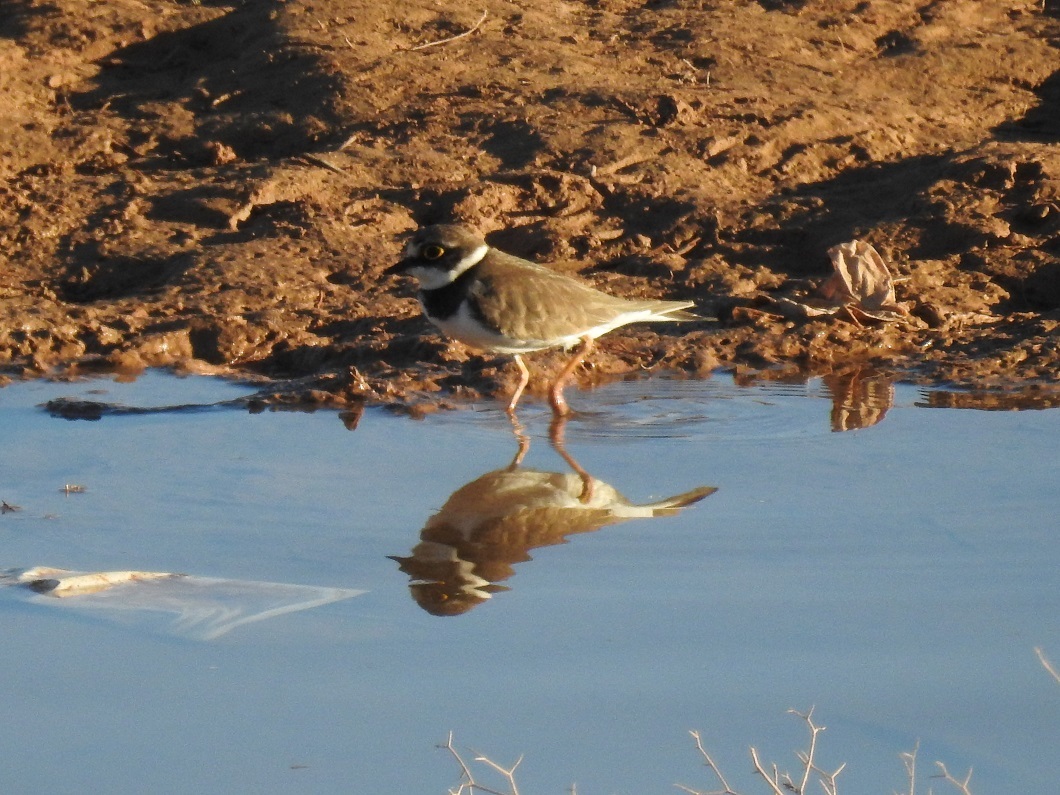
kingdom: Animalia
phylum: Chordata
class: Aves
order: Charadriiformes
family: Charadriidae
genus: Charadrius
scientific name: Charadrius dubius
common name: Little ringed plover
